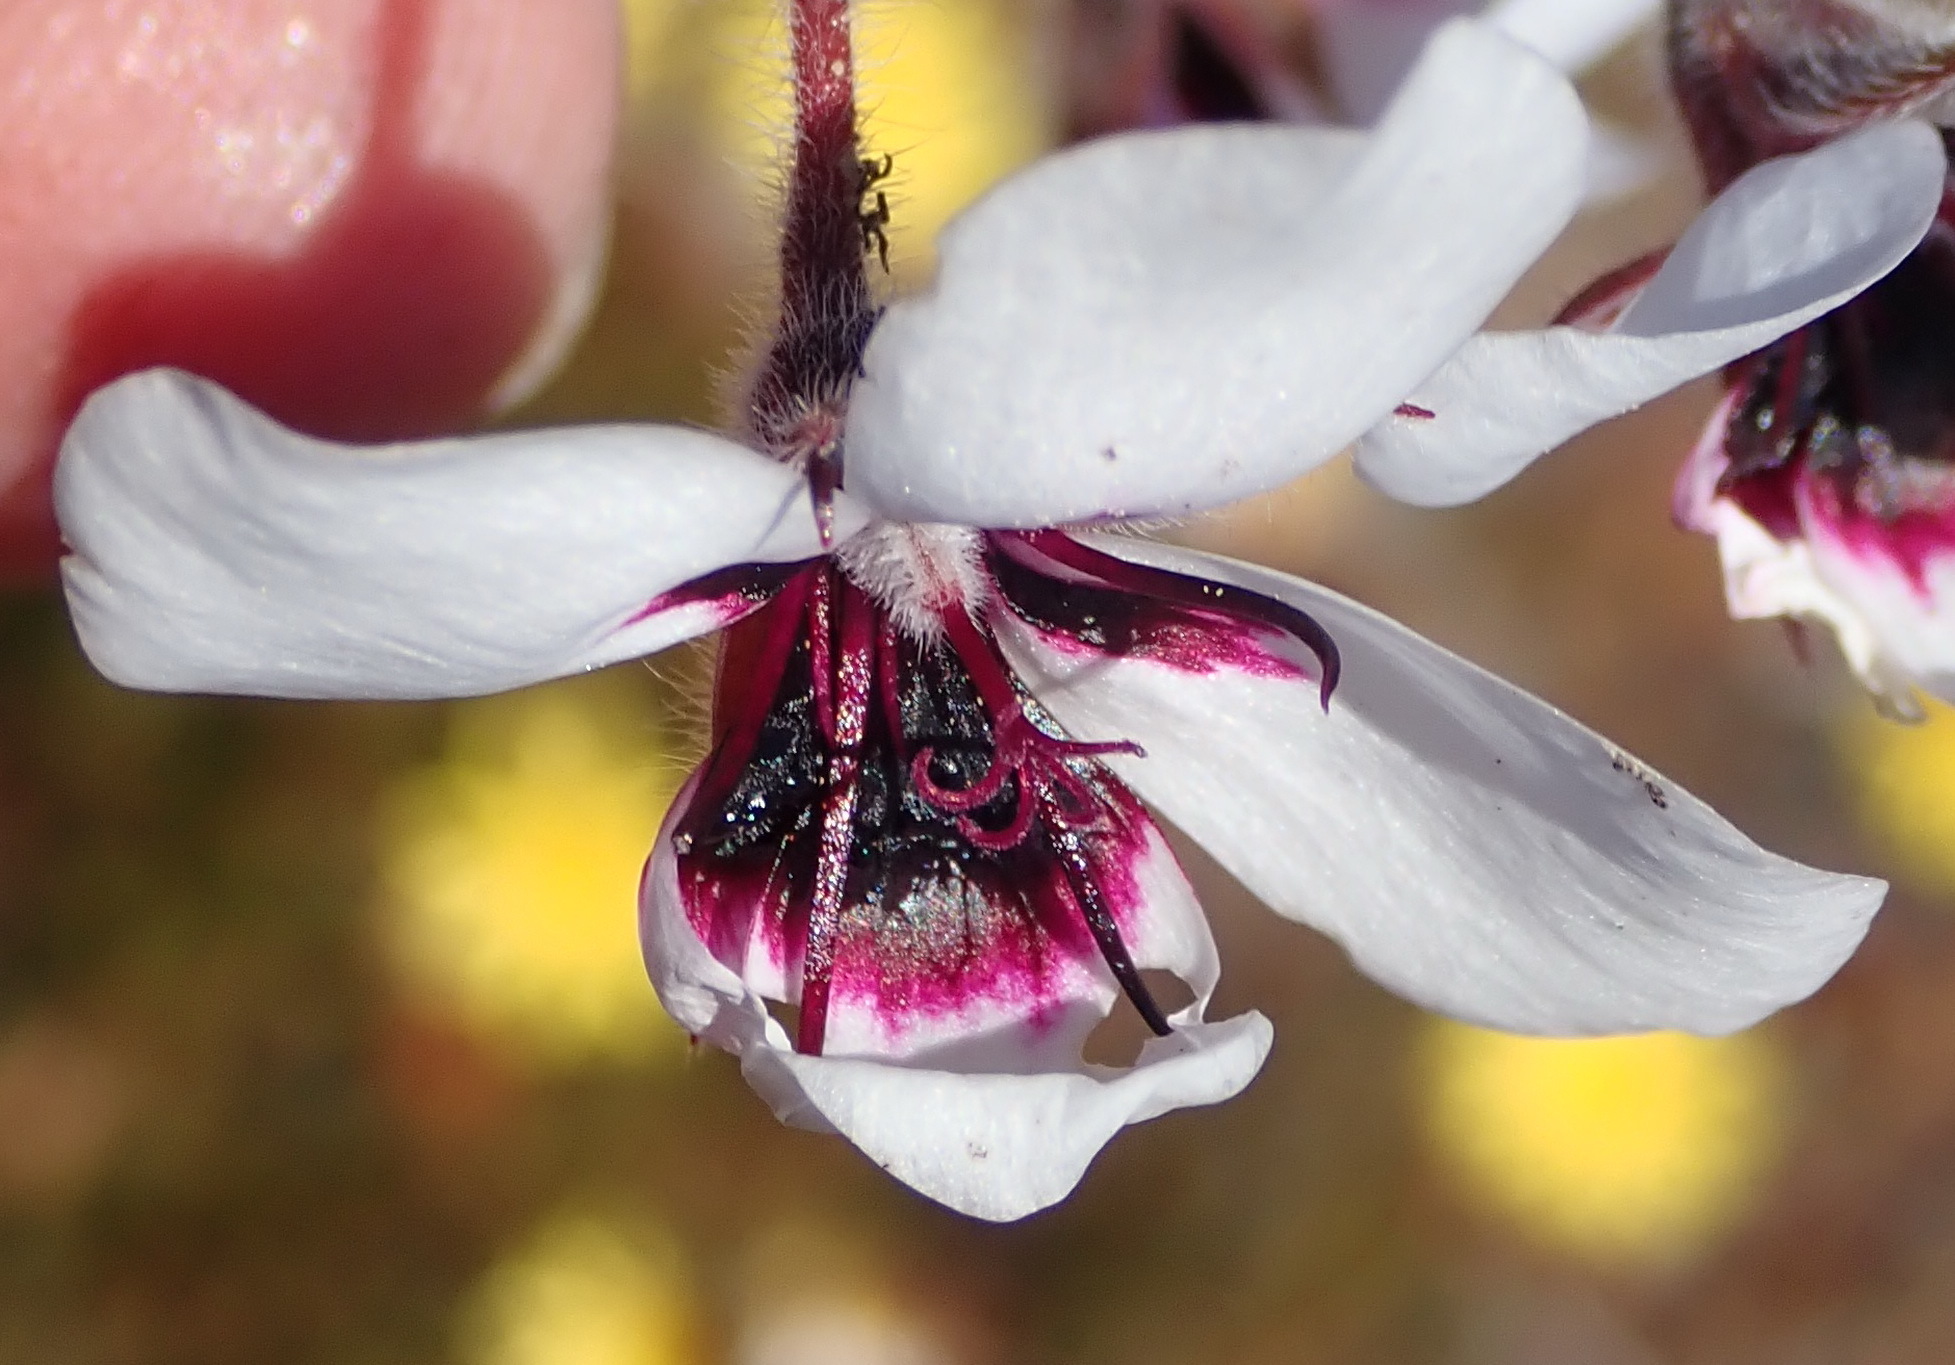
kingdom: Plantae
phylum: Tracheophyta
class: Magnoliopsida
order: Geraniales
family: Geraniaceae
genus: Pelargonium
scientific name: Pelargonium tricolor
